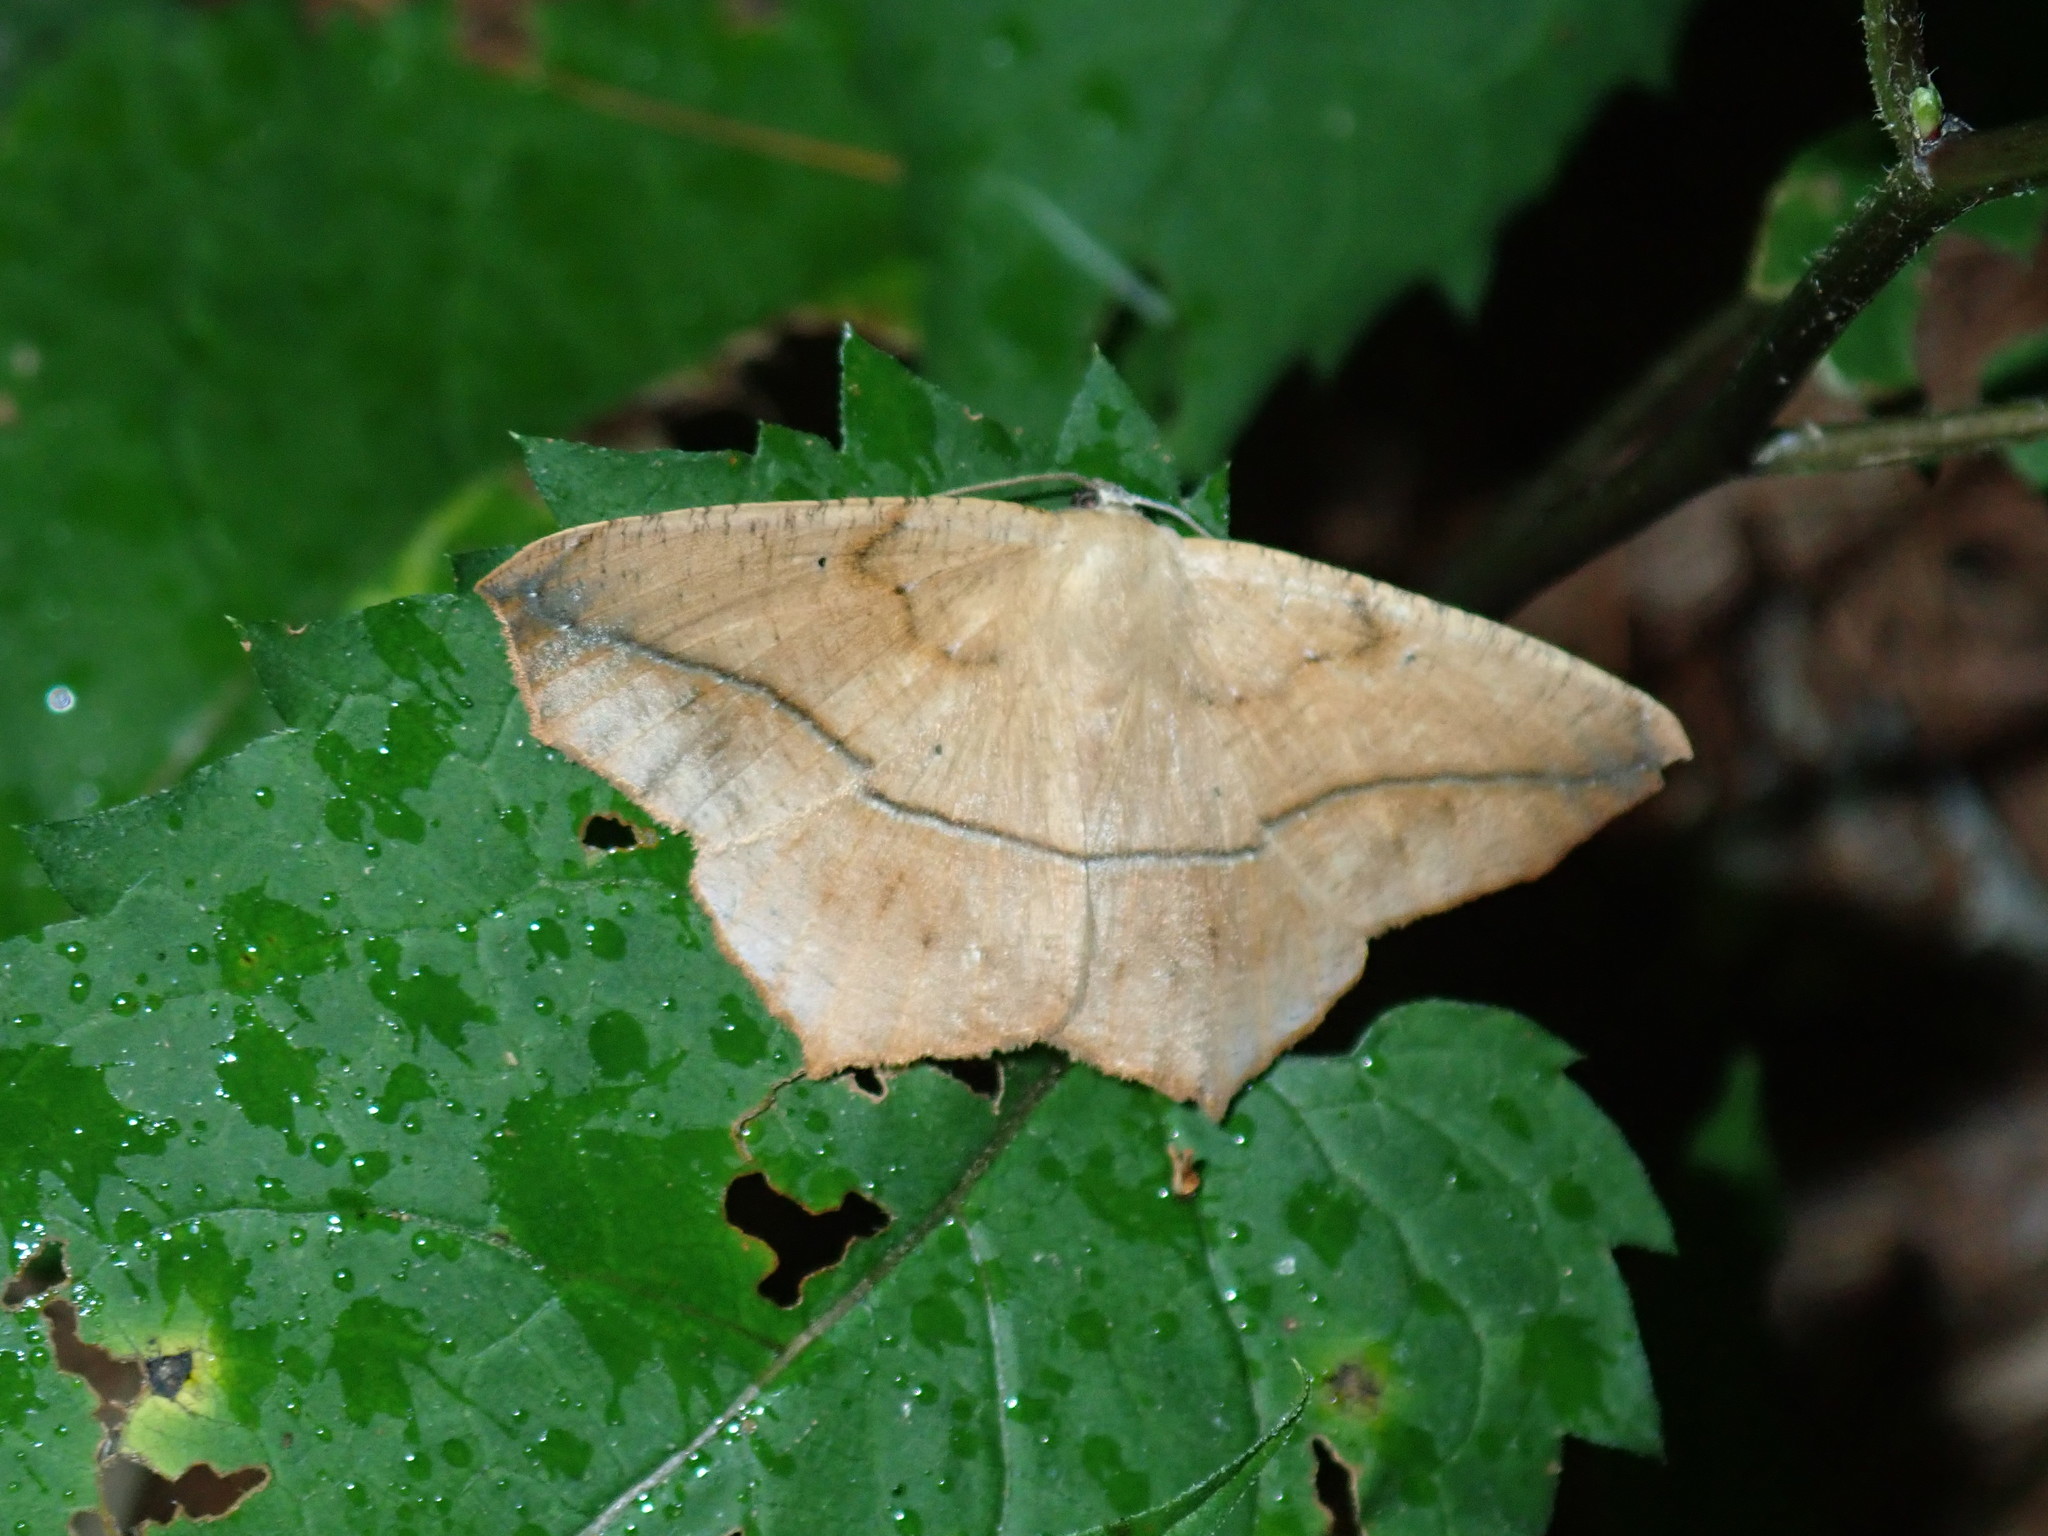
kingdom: Animalia
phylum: Arthropoda
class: Insecta
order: Lepidoptera
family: Geometridae
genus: Prochoerodes
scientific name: Prochoerodes lineola
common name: Large maple spanworm
